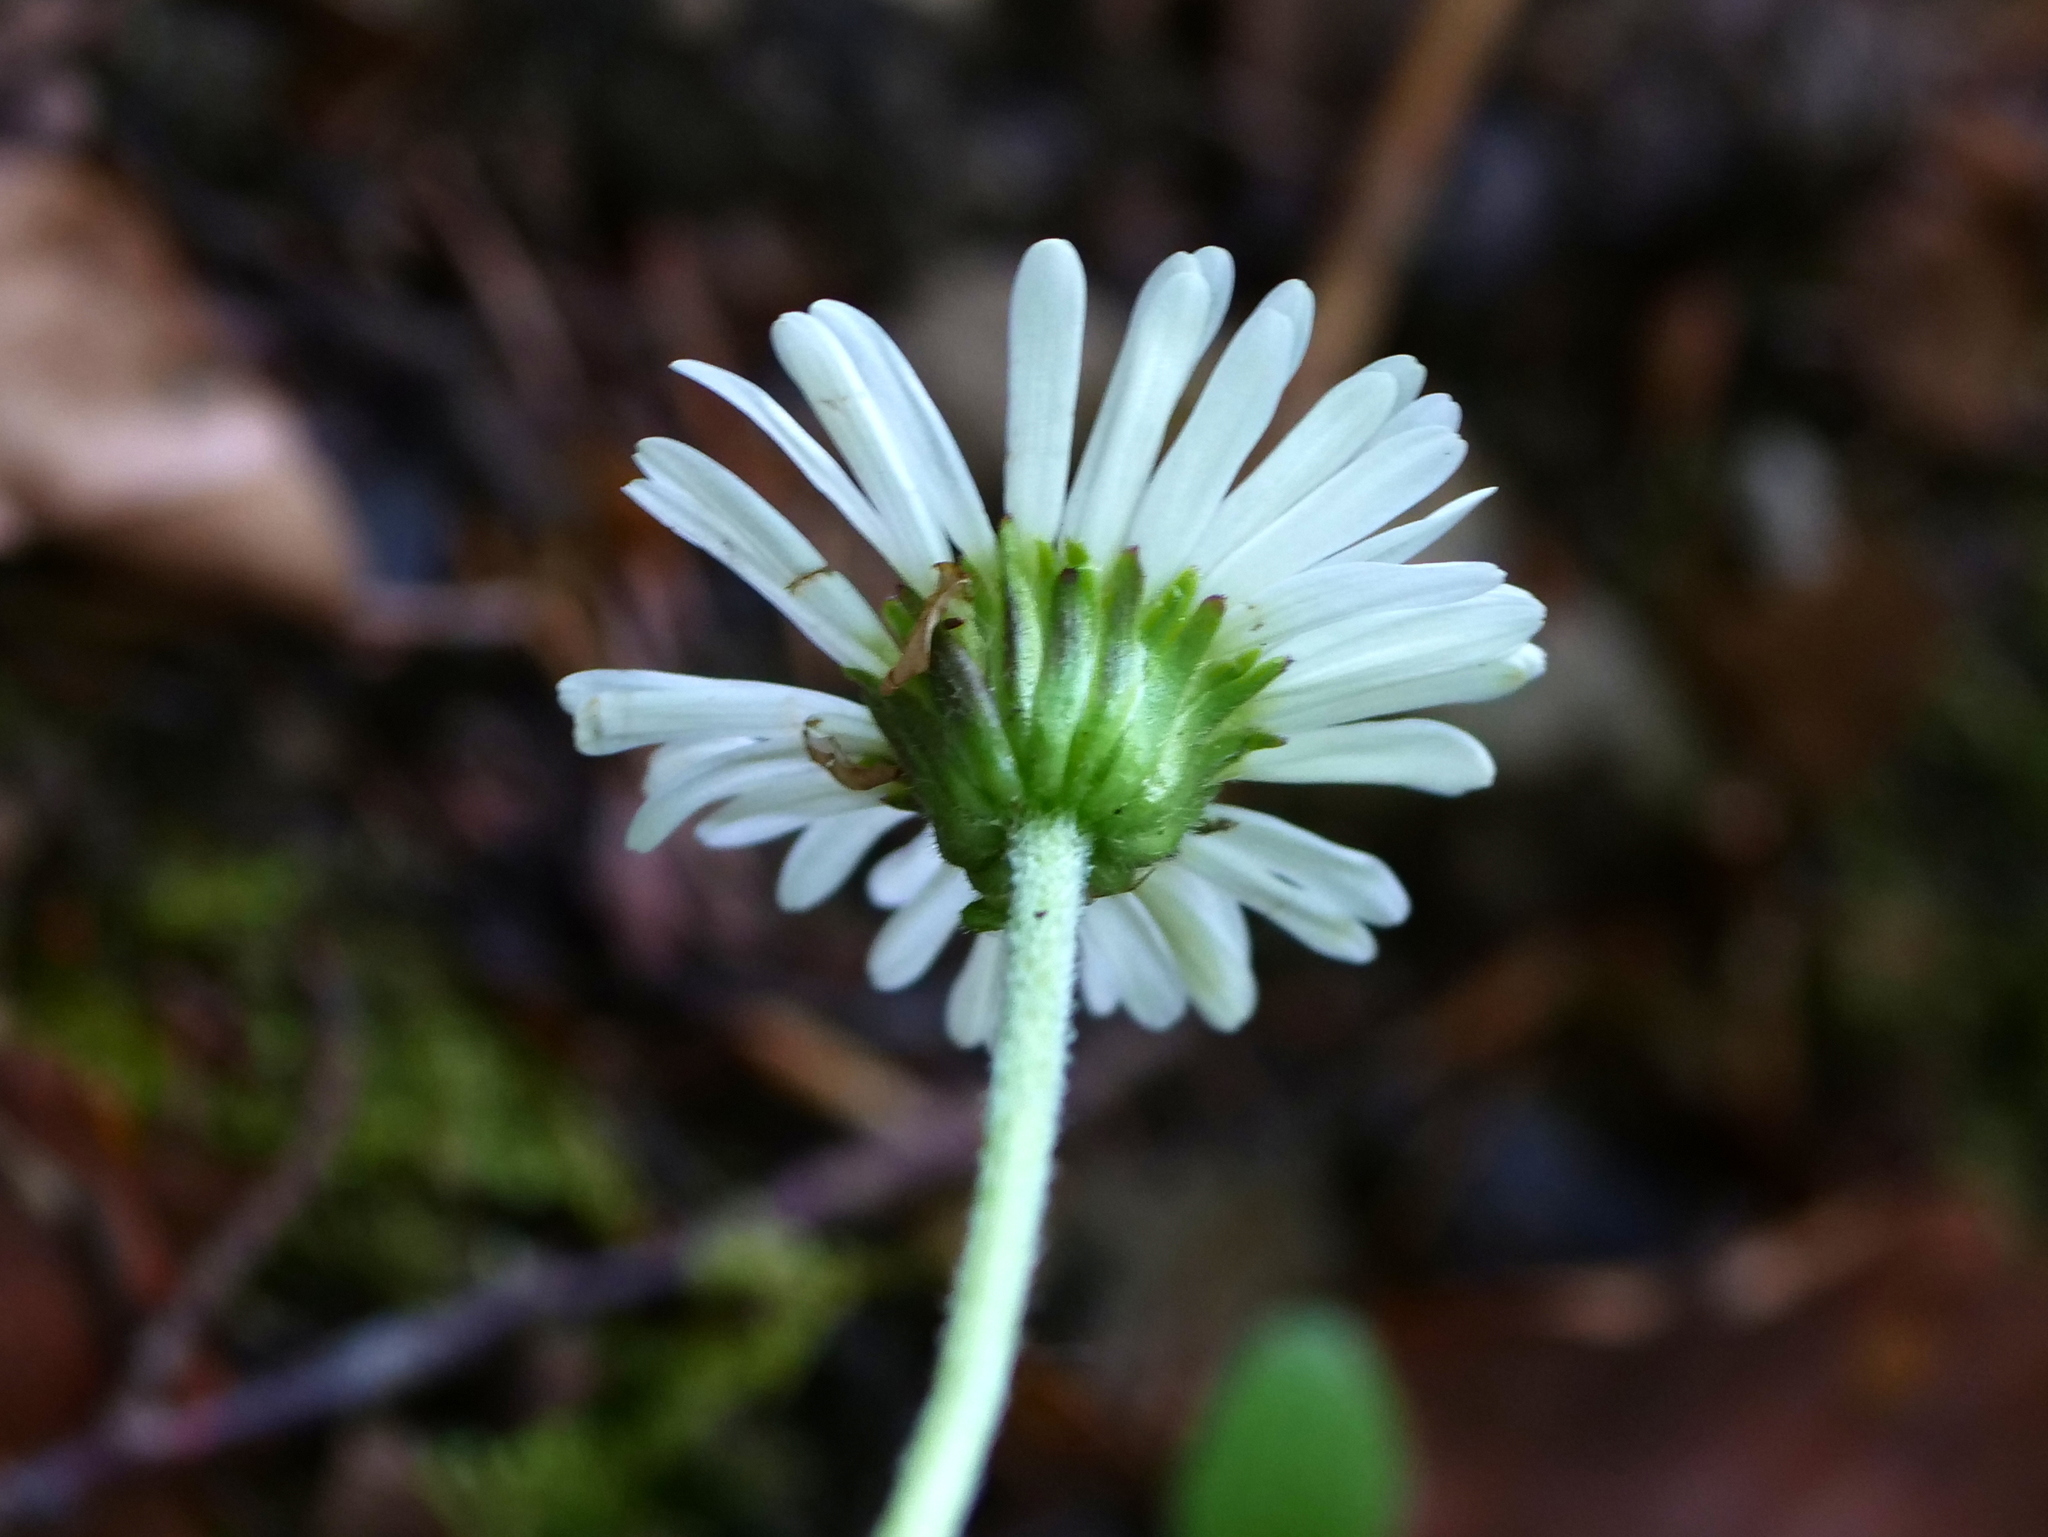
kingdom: Plantae
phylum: Tracheophyta
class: Magnoliopsida
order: Asterales
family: Asteraceae
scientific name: Asteraceae
